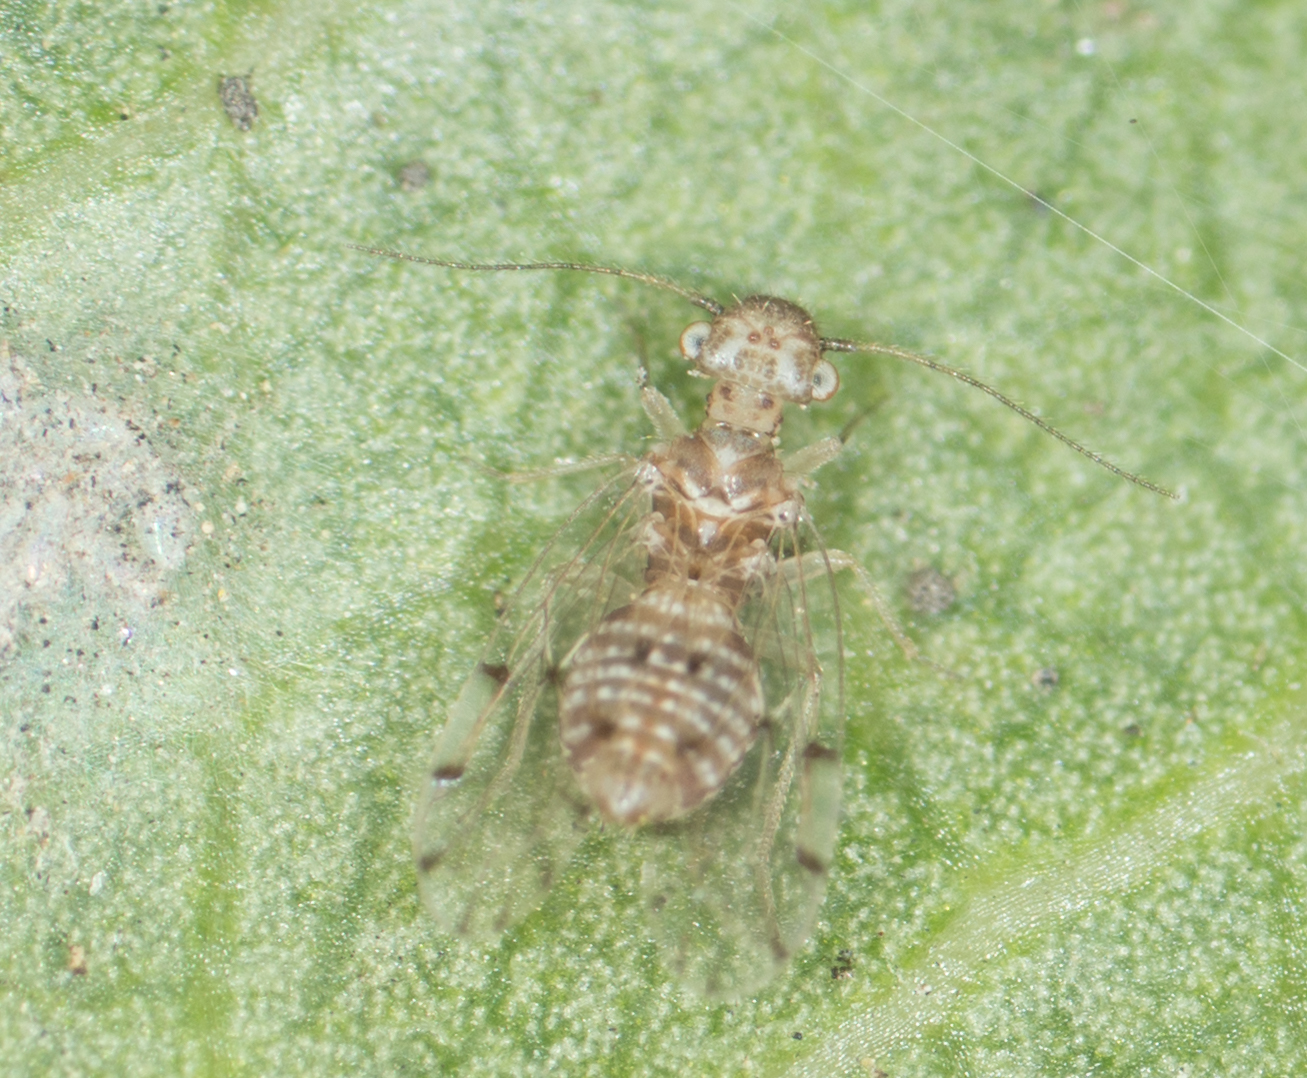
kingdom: Animalia
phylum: Arthropoda
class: Insecta
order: Psocodea
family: Ectopsocidae
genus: Ectopsocus
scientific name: Ectopsocus californicus
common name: Bark lice
